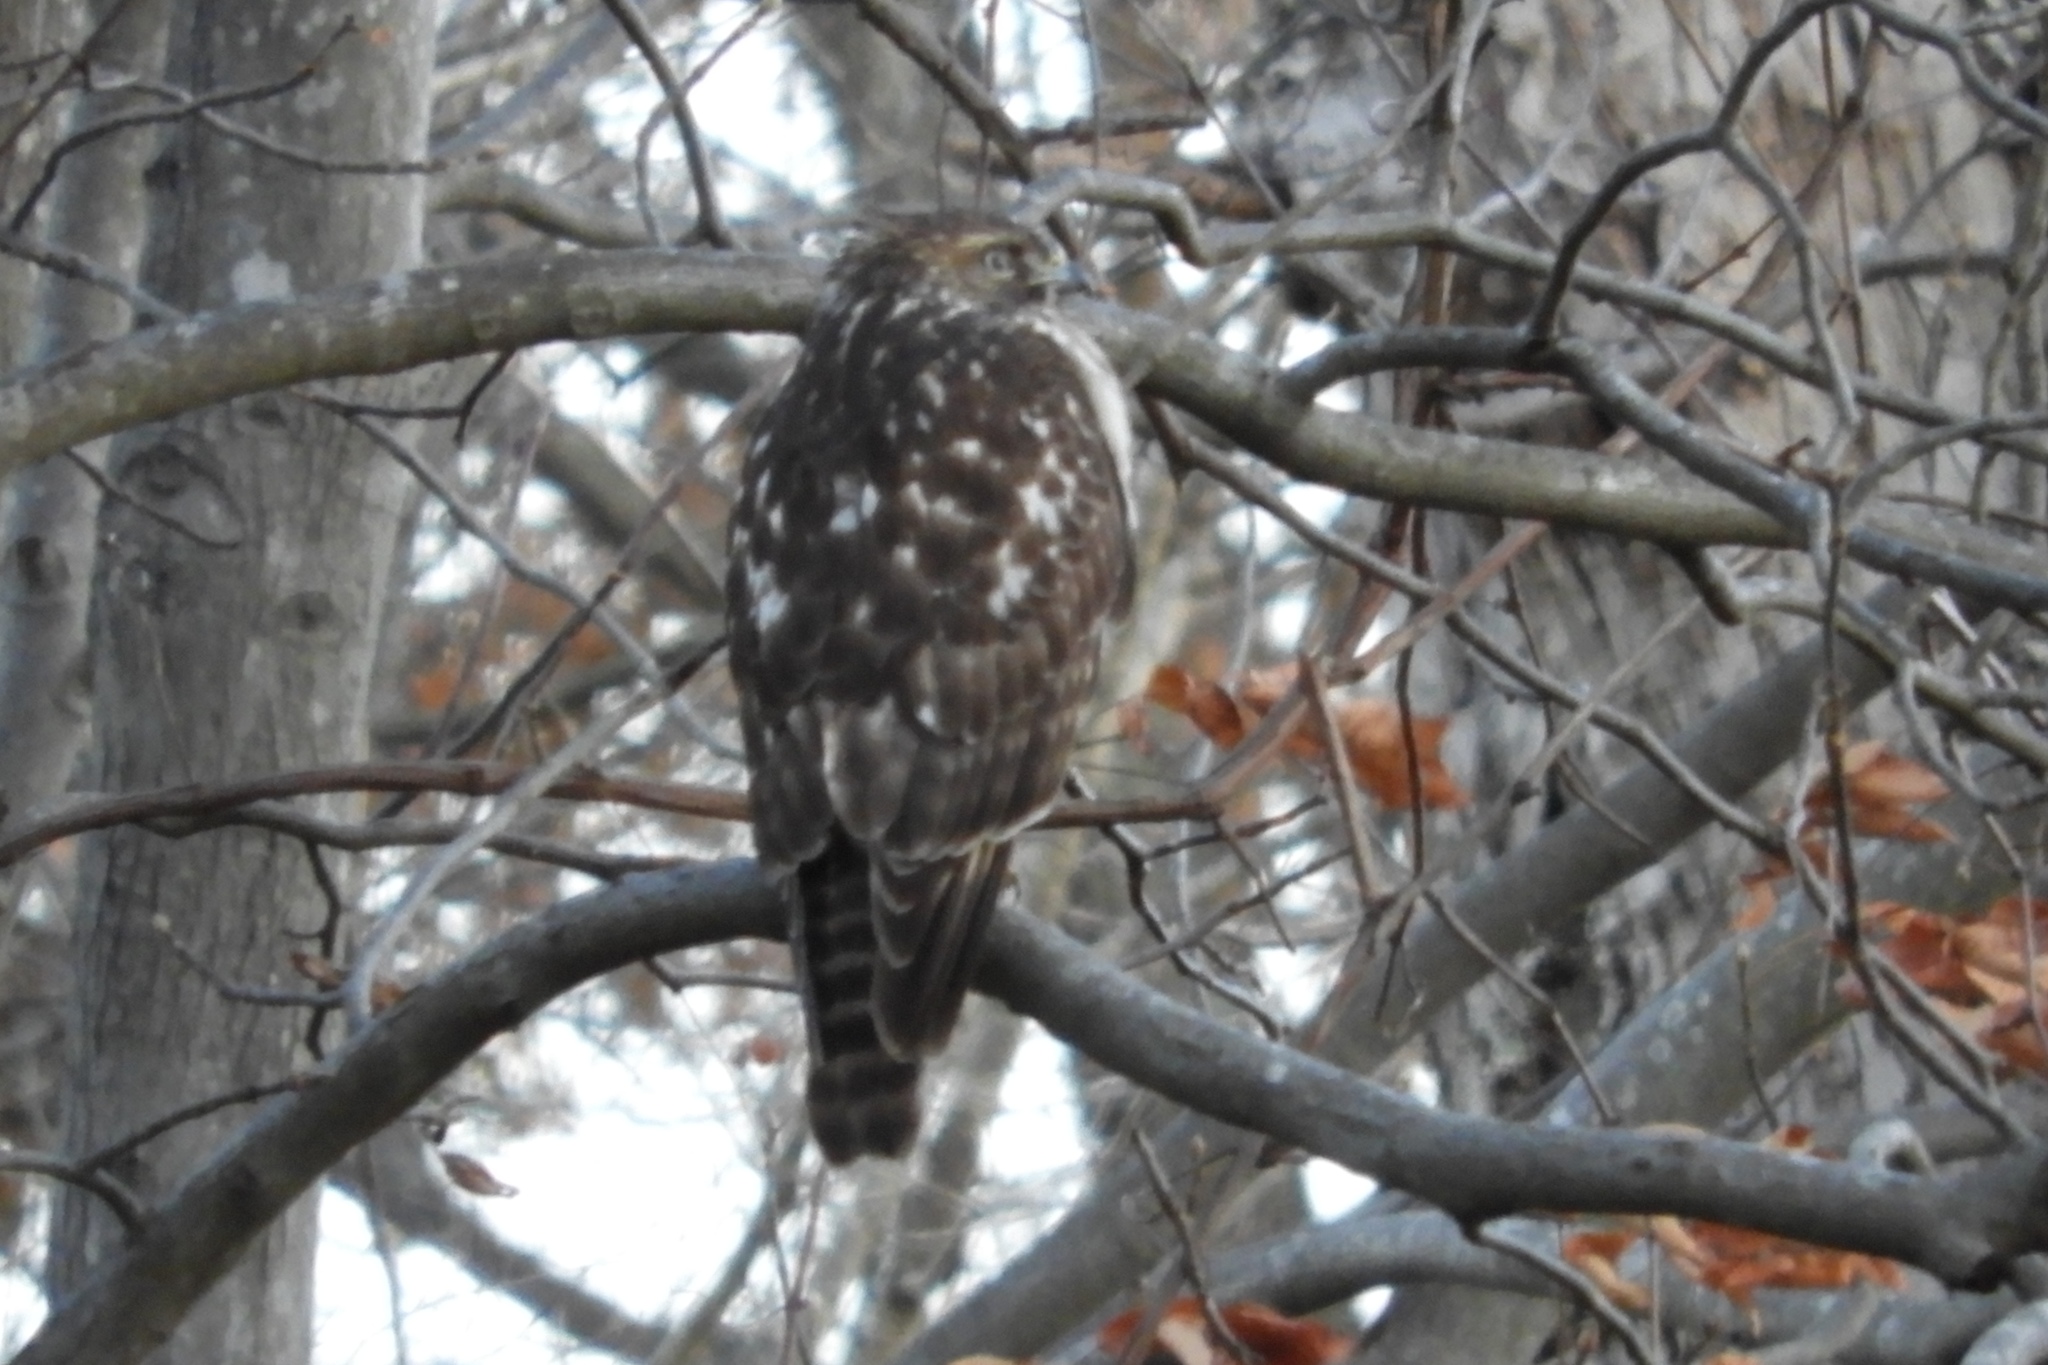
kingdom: Animalia
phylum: Chordata
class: Aves
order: Accipitriformes
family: Accipitridae
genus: Buteo
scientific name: Buteo lineatus
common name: Red-shouldered hawk
